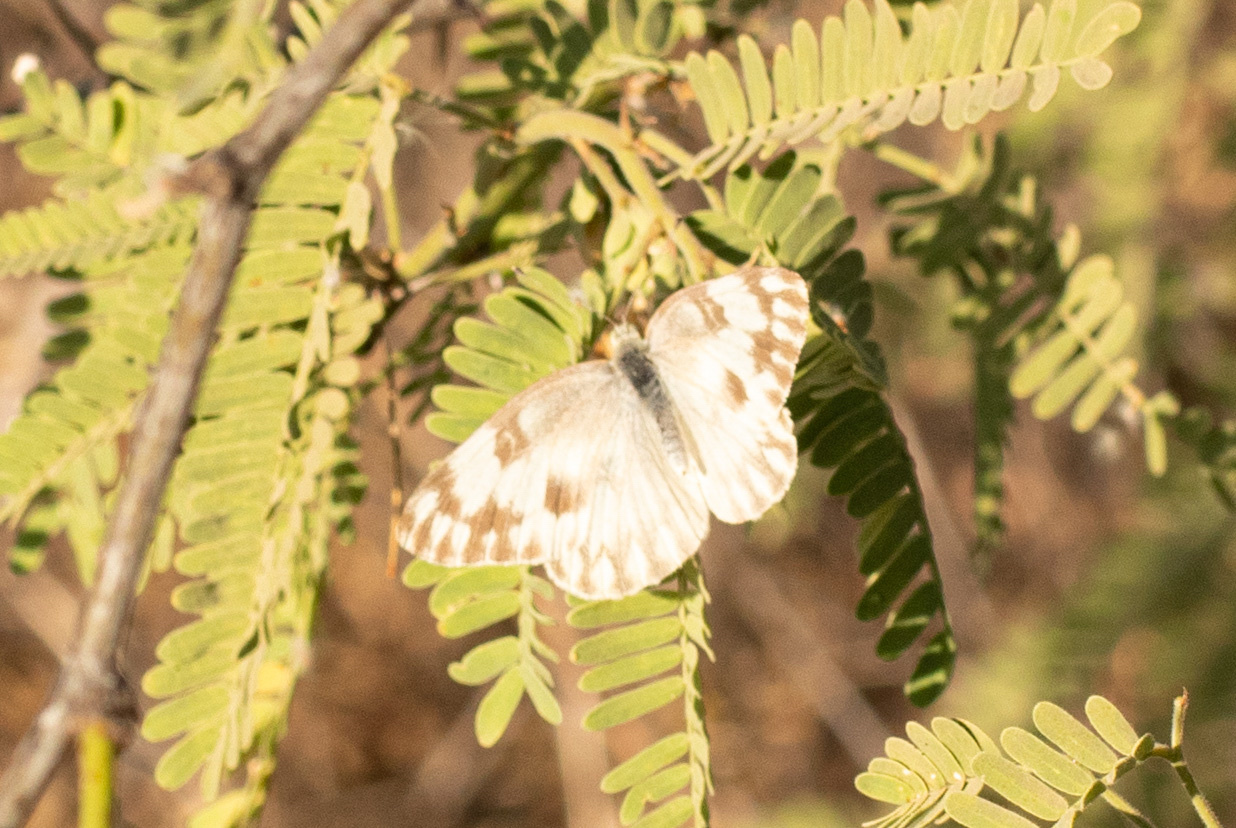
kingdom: Animalia
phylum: Arthropoda
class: Insecta
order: Lepidoptera
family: Pieridae
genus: Pontia
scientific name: Pontia protodice
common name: Checkered white
